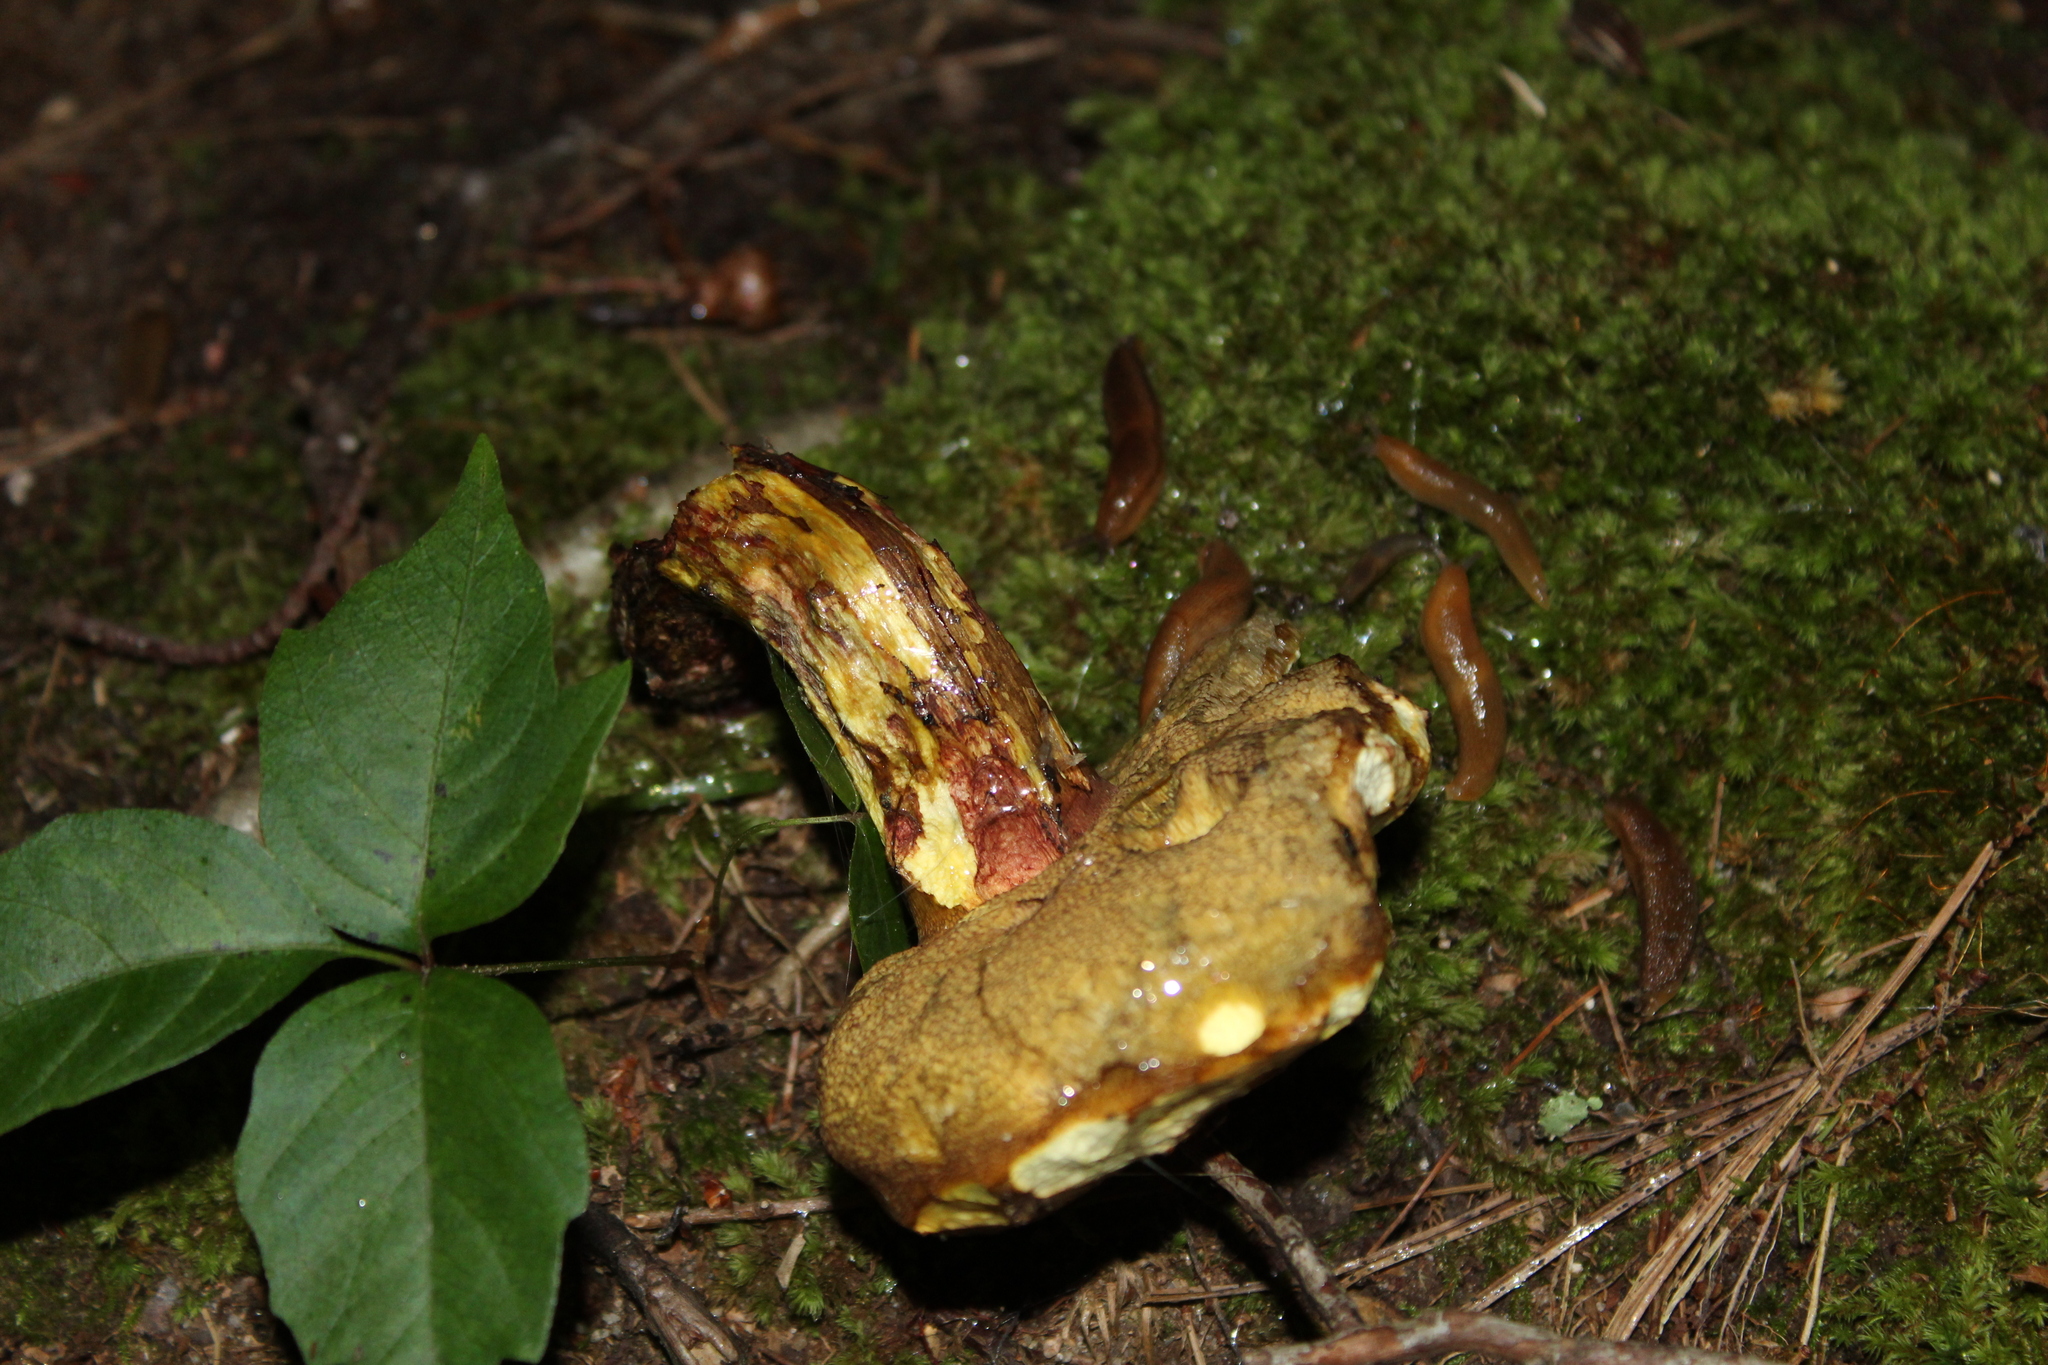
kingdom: Fungi
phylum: Basidiomycota
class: Agaricomycetes
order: Boletales
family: Suillaceae
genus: Suillus
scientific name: Suillus spraguei
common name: Painted suillus
